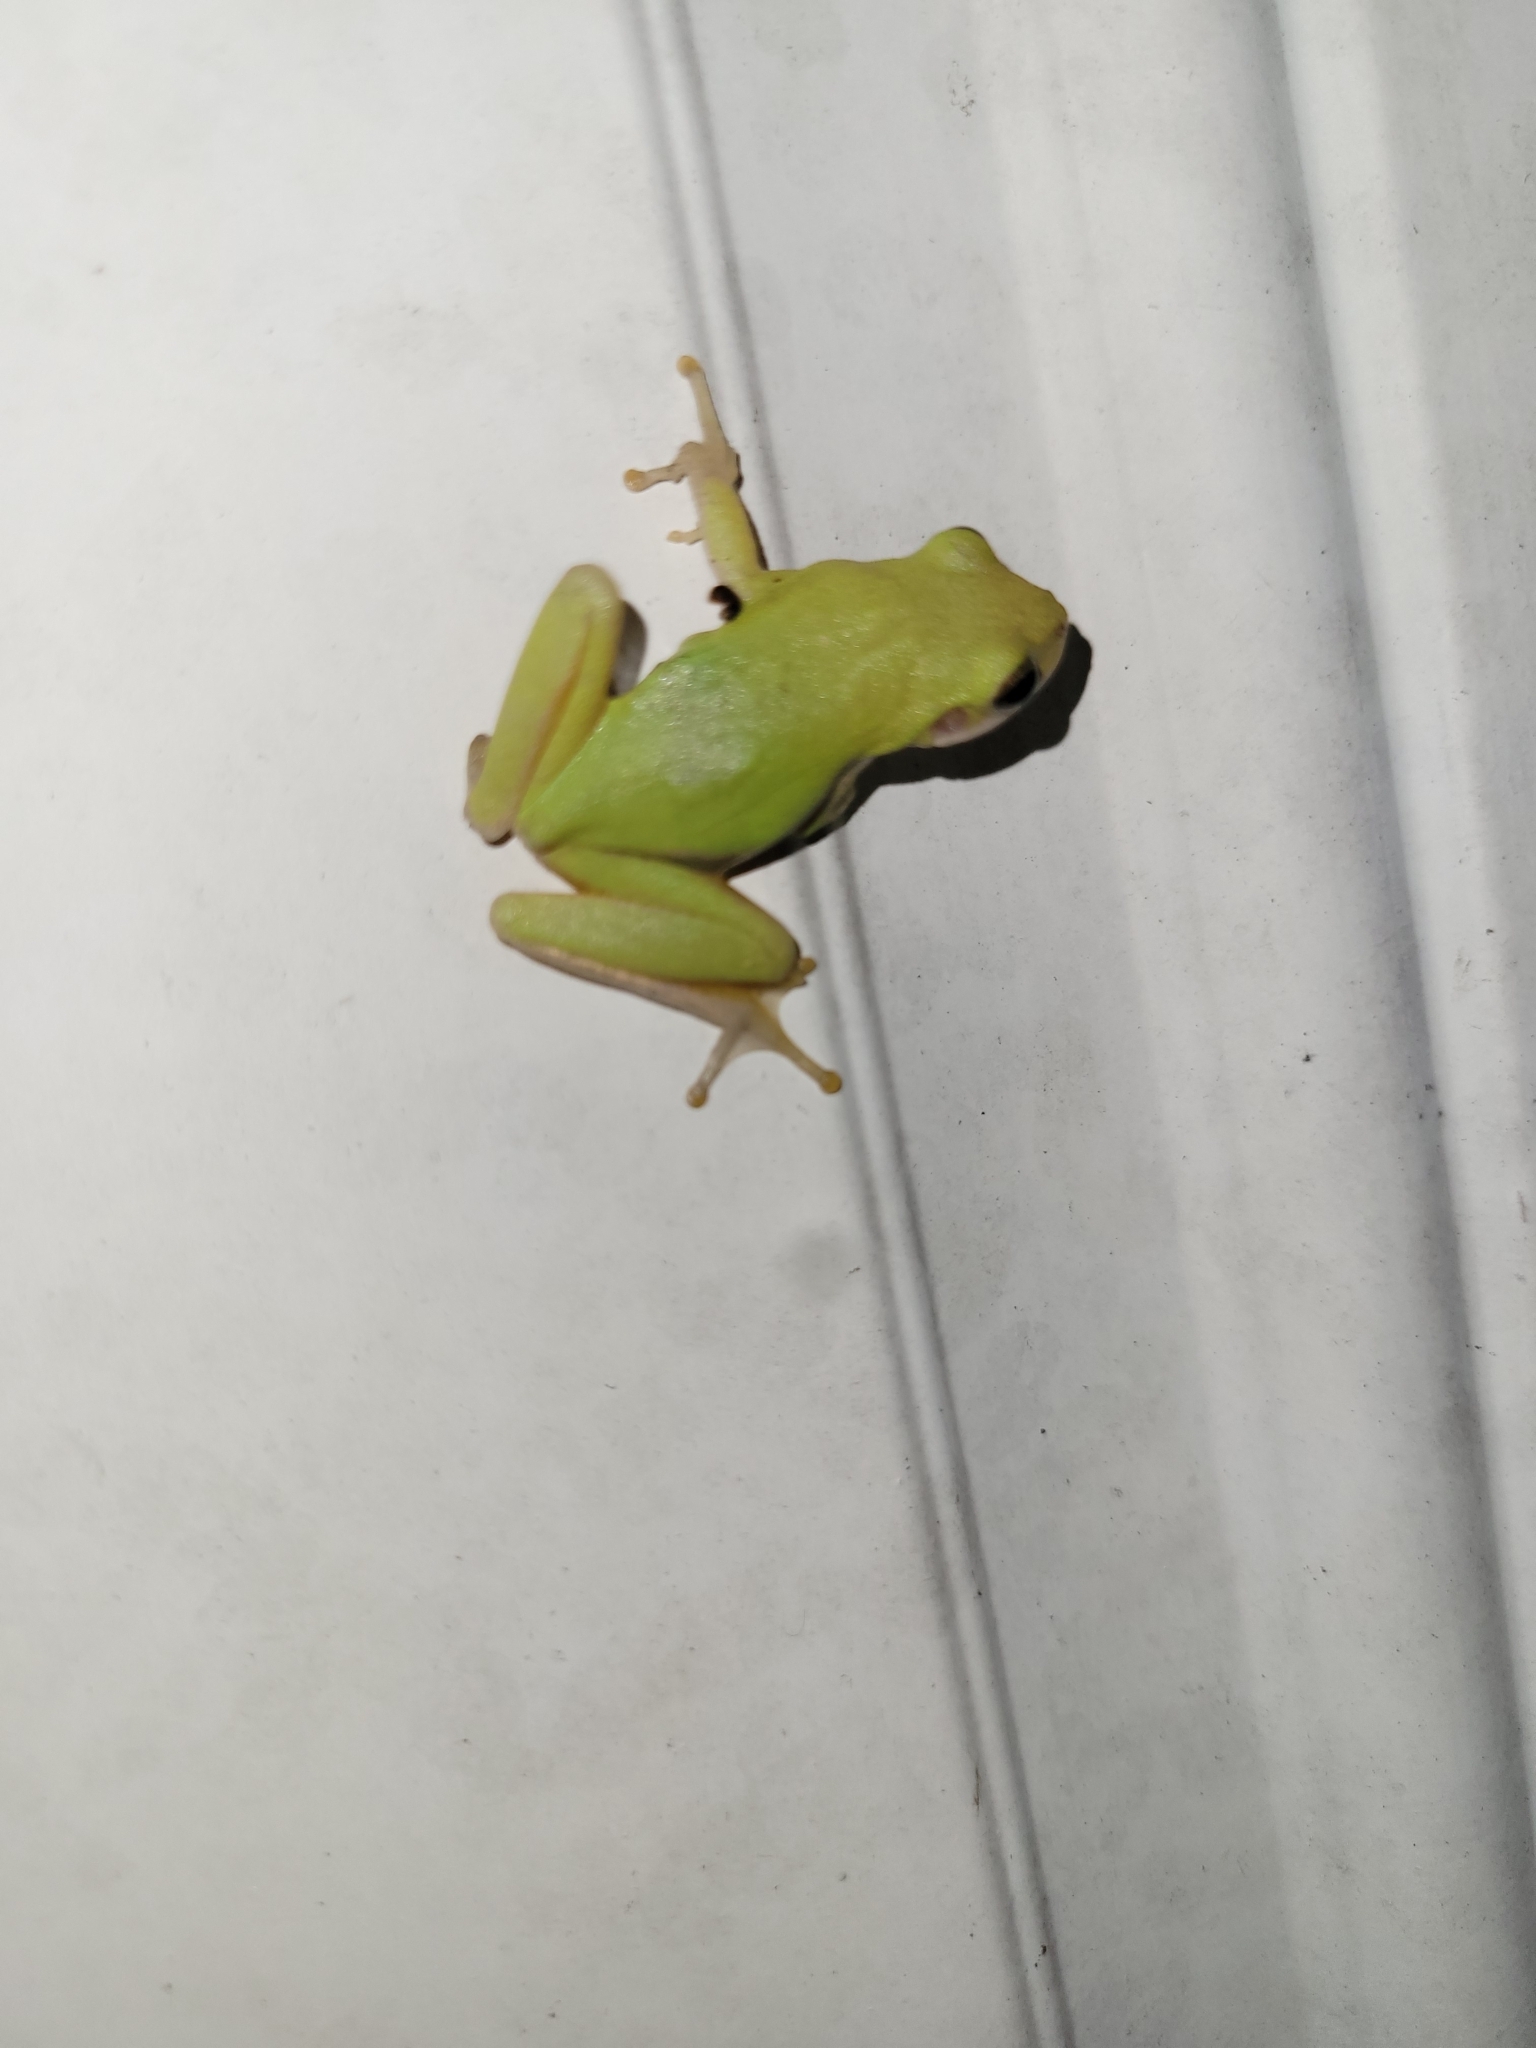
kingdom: Animalia
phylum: Chordata
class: Amphibia
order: Anura
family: Hylidae
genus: Dryophytes
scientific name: Dryophytes squirellus
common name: Squirrel treefrog
